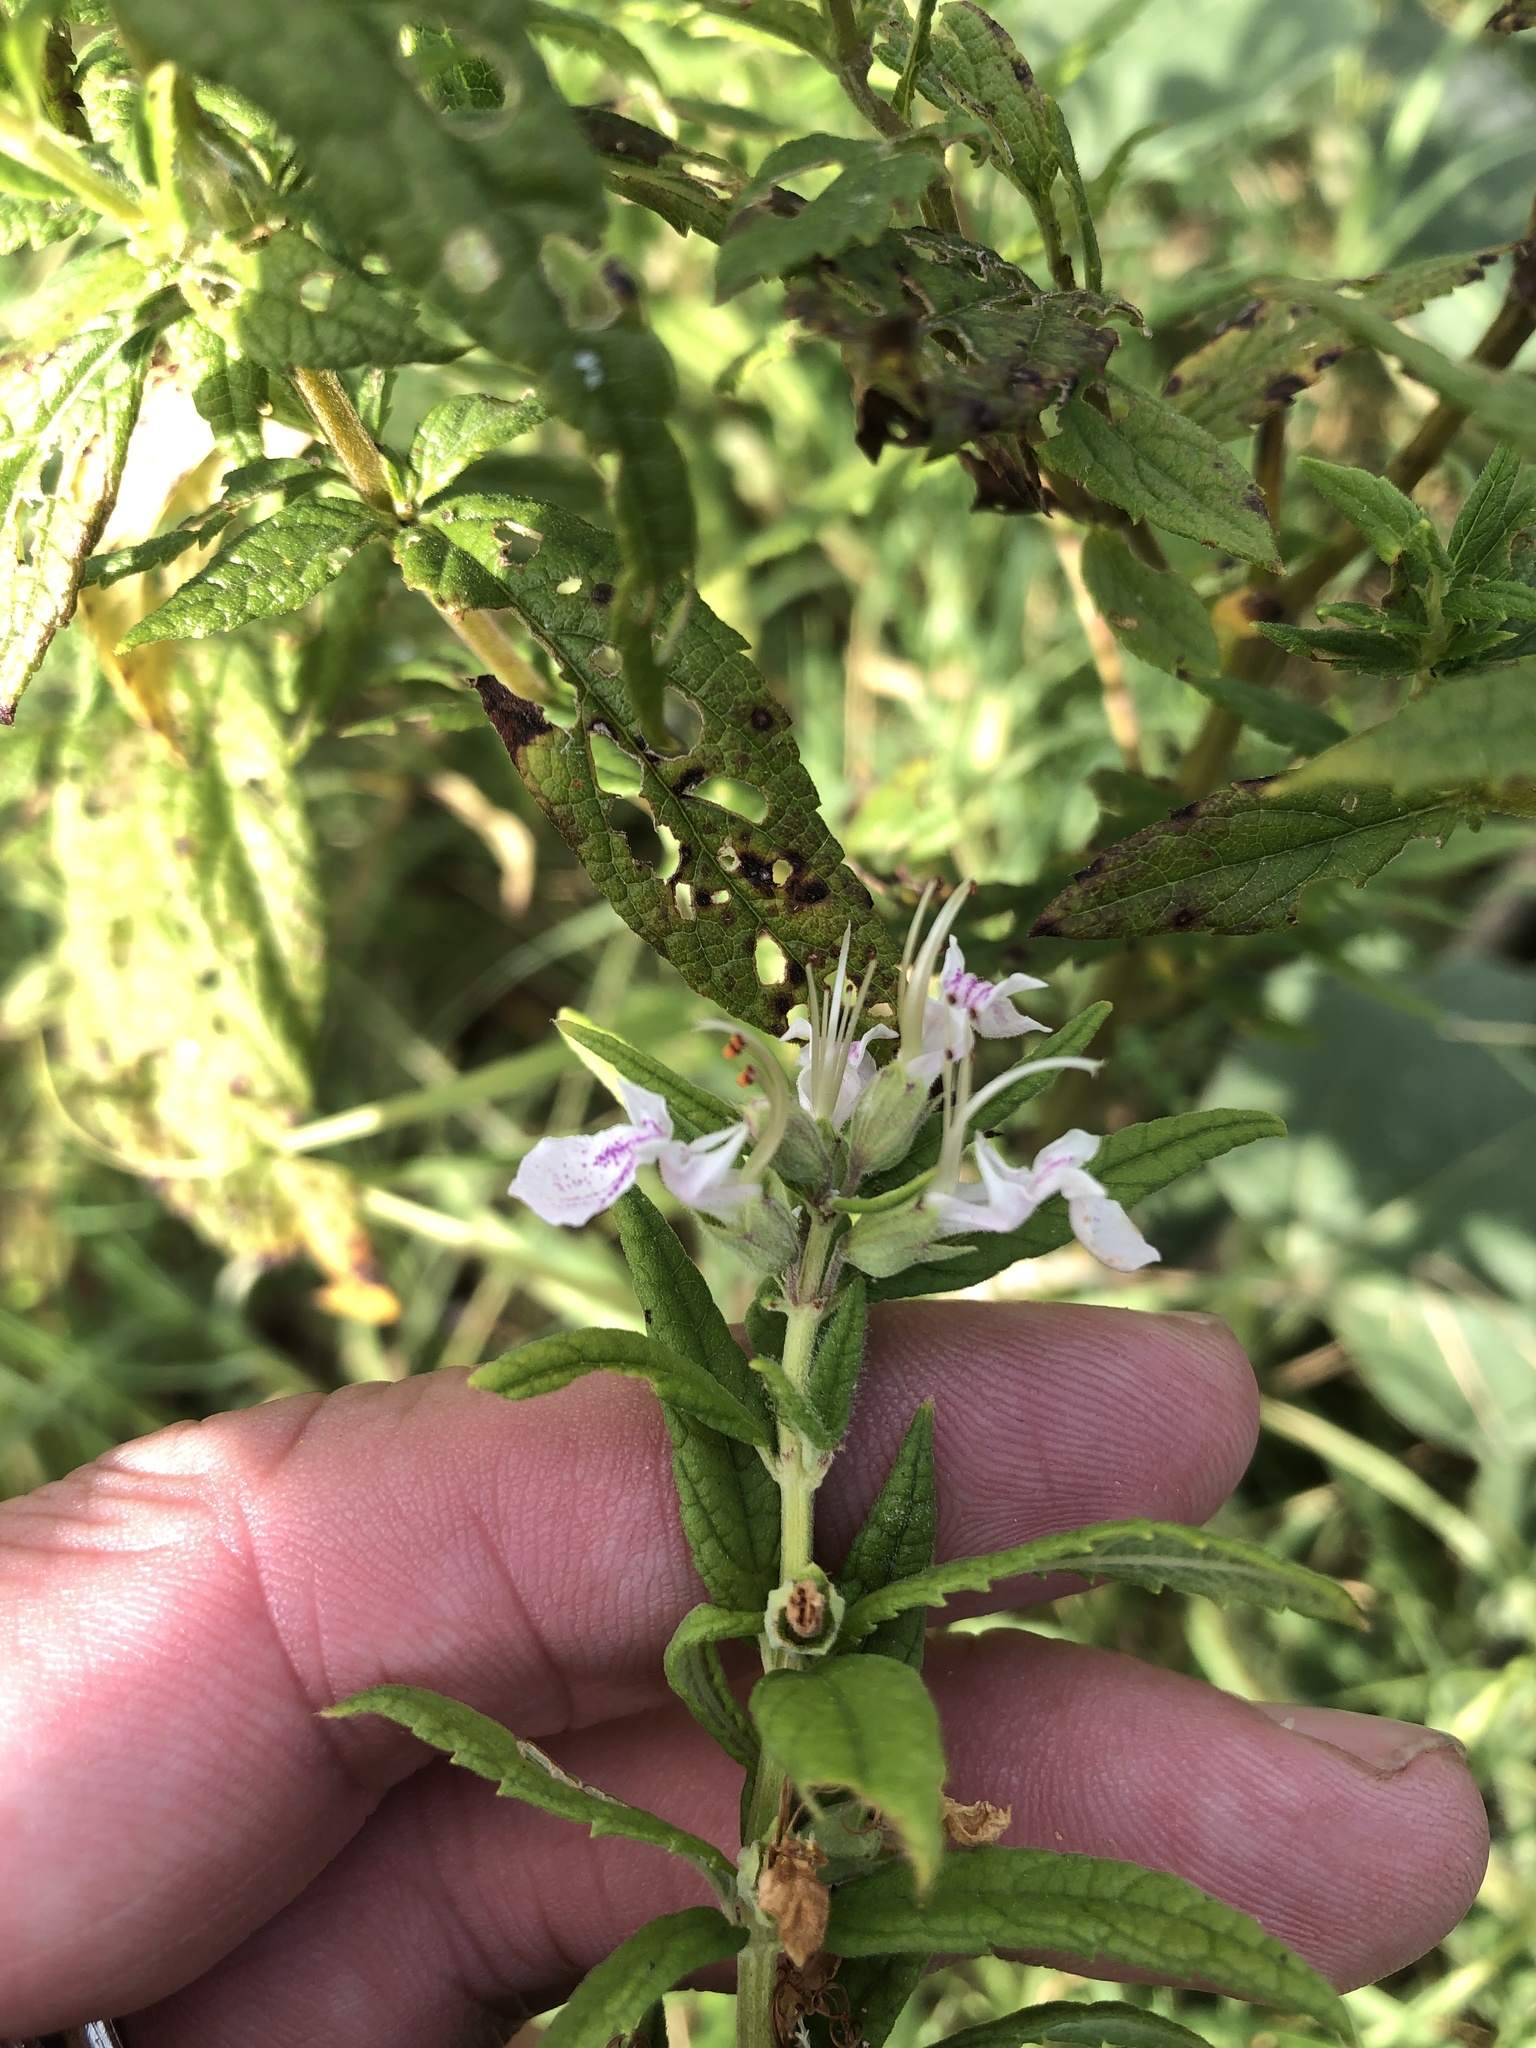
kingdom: Plantae
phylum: Tracheophyta
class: Magnoliopsida
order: Lamiales
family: Lamiaceae
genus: Teucrium
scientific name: Teucrium canadense
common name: American germander
